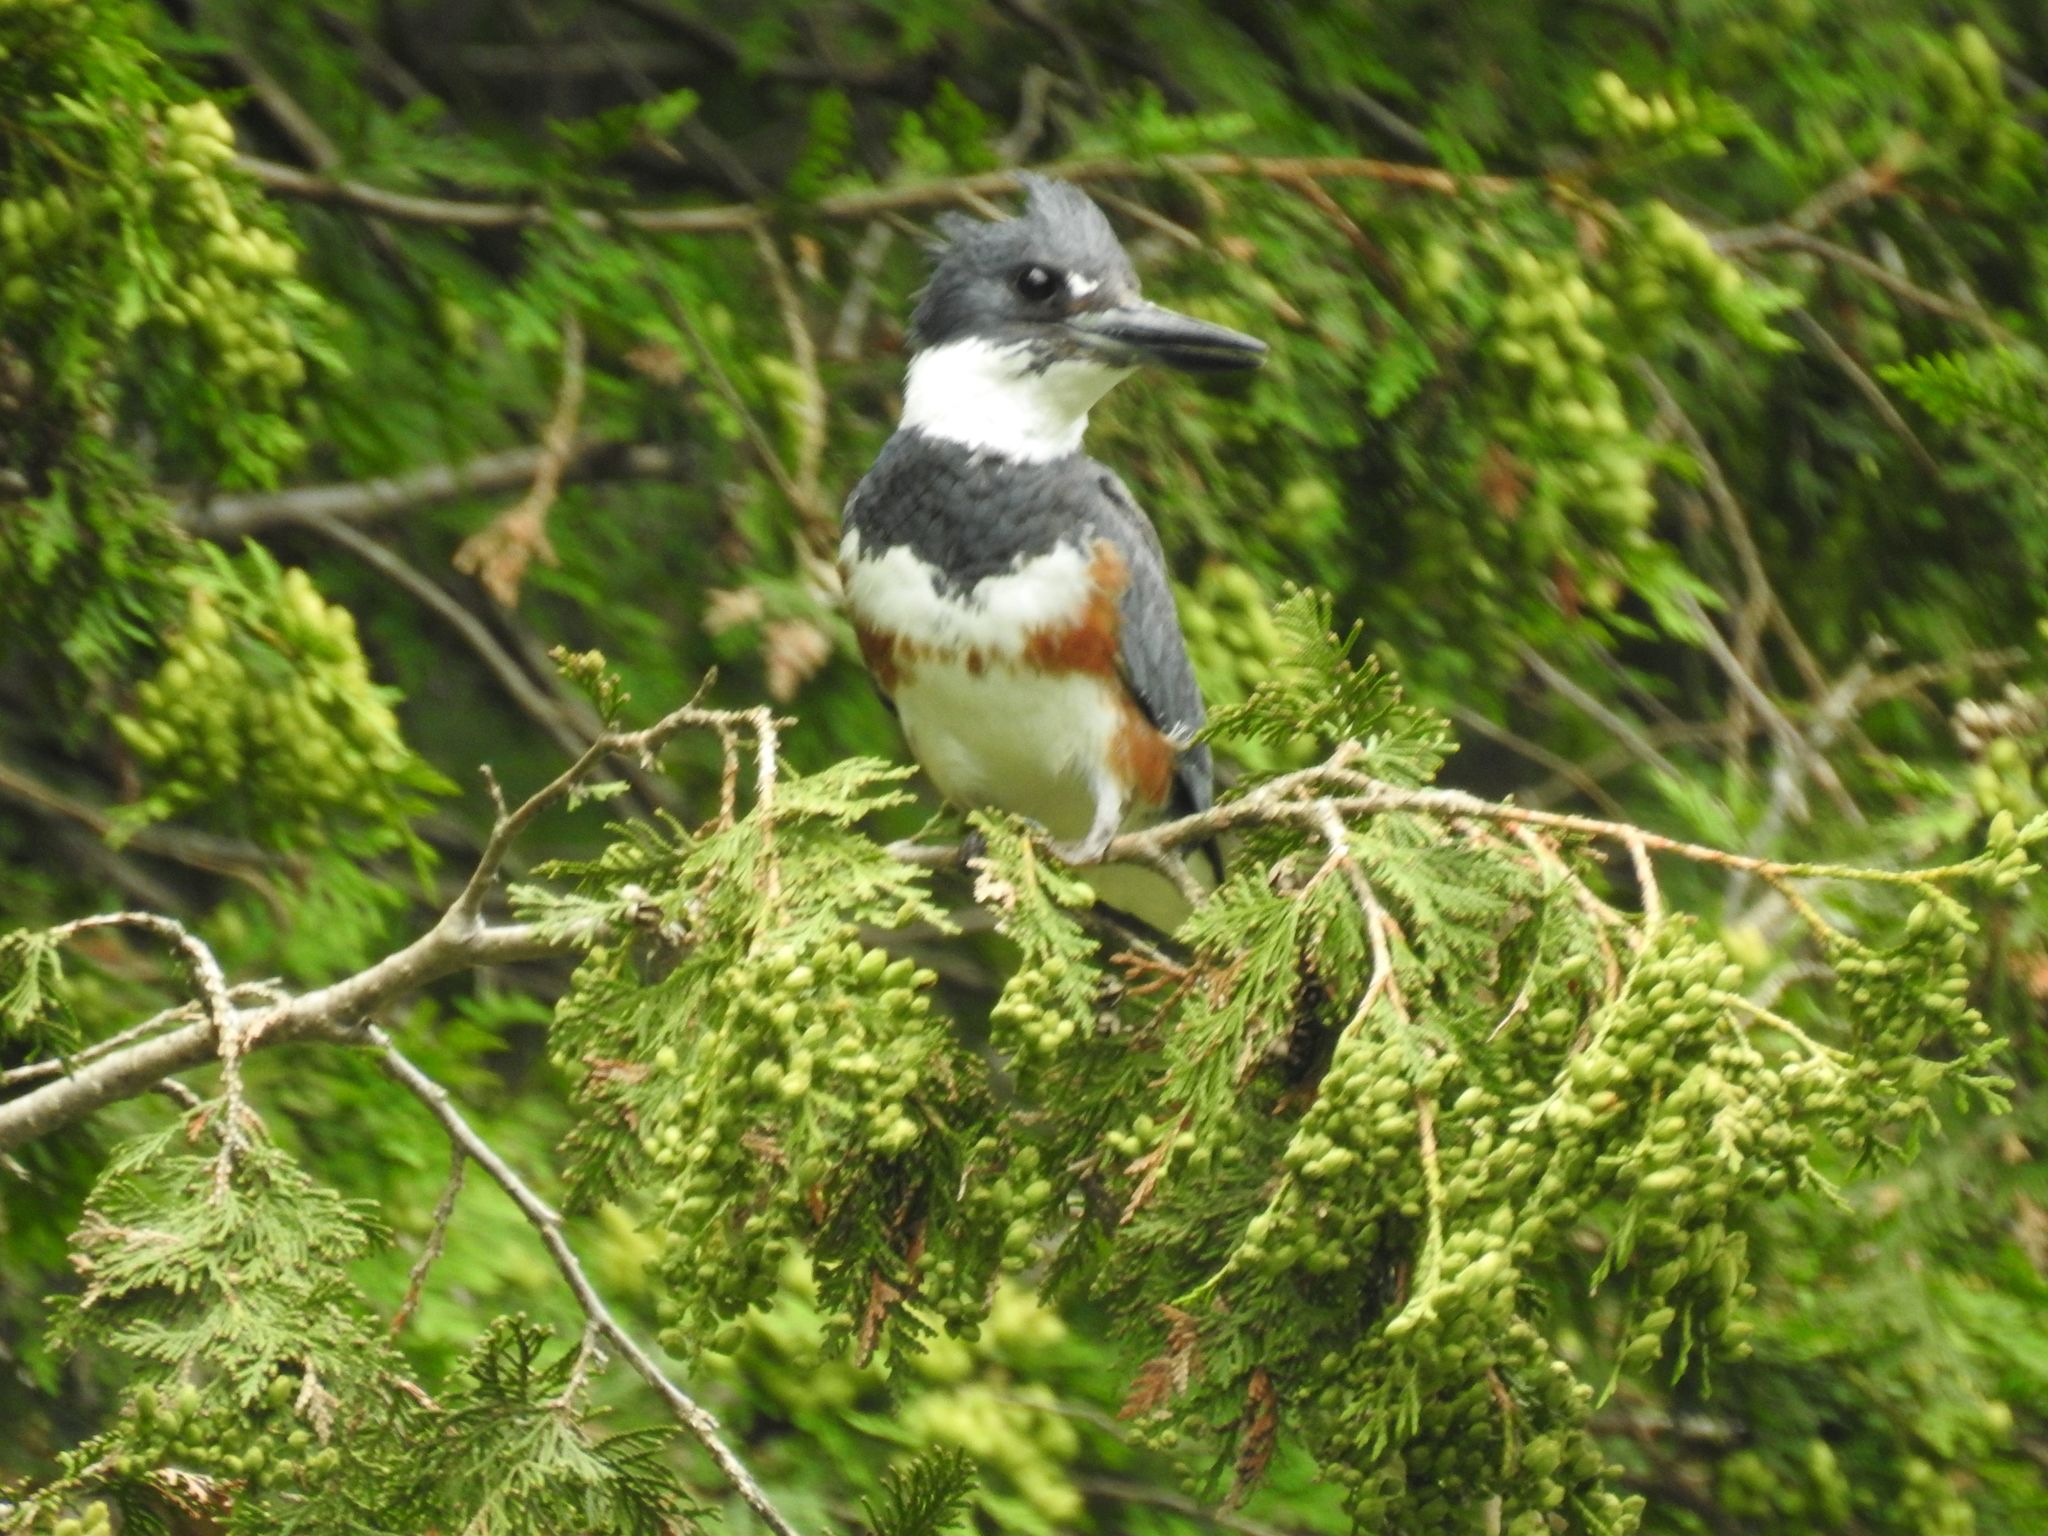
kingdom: Animalia
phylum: Chordata
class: Aves
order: Coraciiformes
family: Alcedinidae
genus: Megaceryle
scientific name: Megaceryle alcyon
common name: Belted kingfisher
